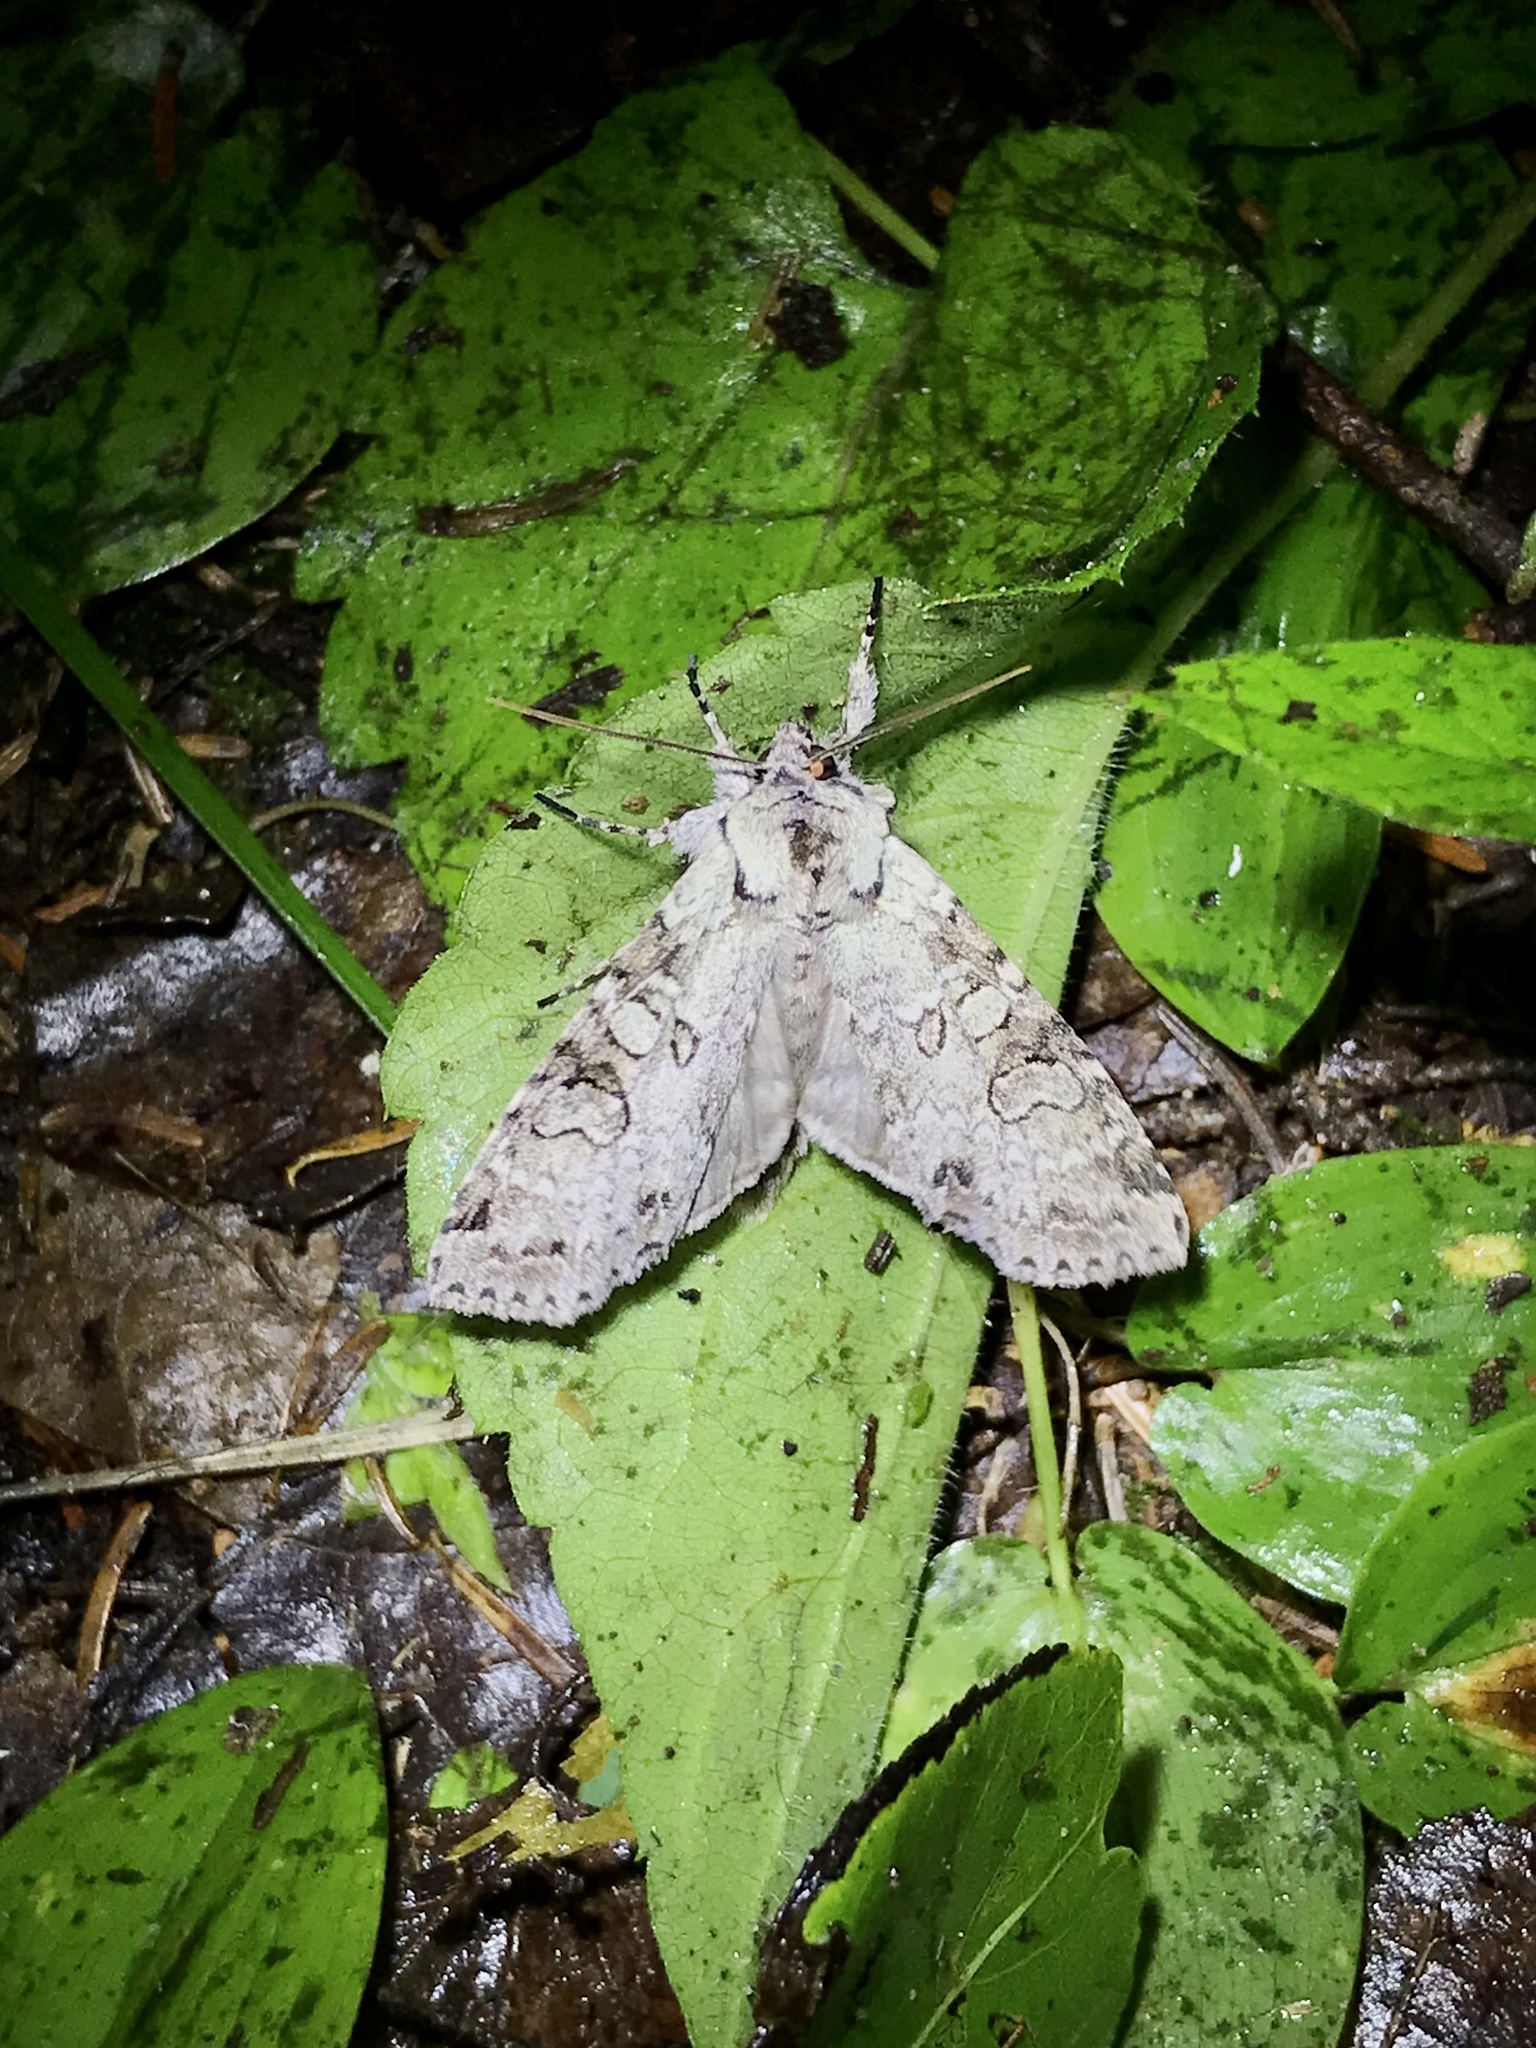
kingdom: Animalia
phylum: Arthropoda
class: Insecta
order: Lepidoptera
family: Noctuidae
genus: Polia
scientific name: Polia nimbosa
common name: Stormy arches
